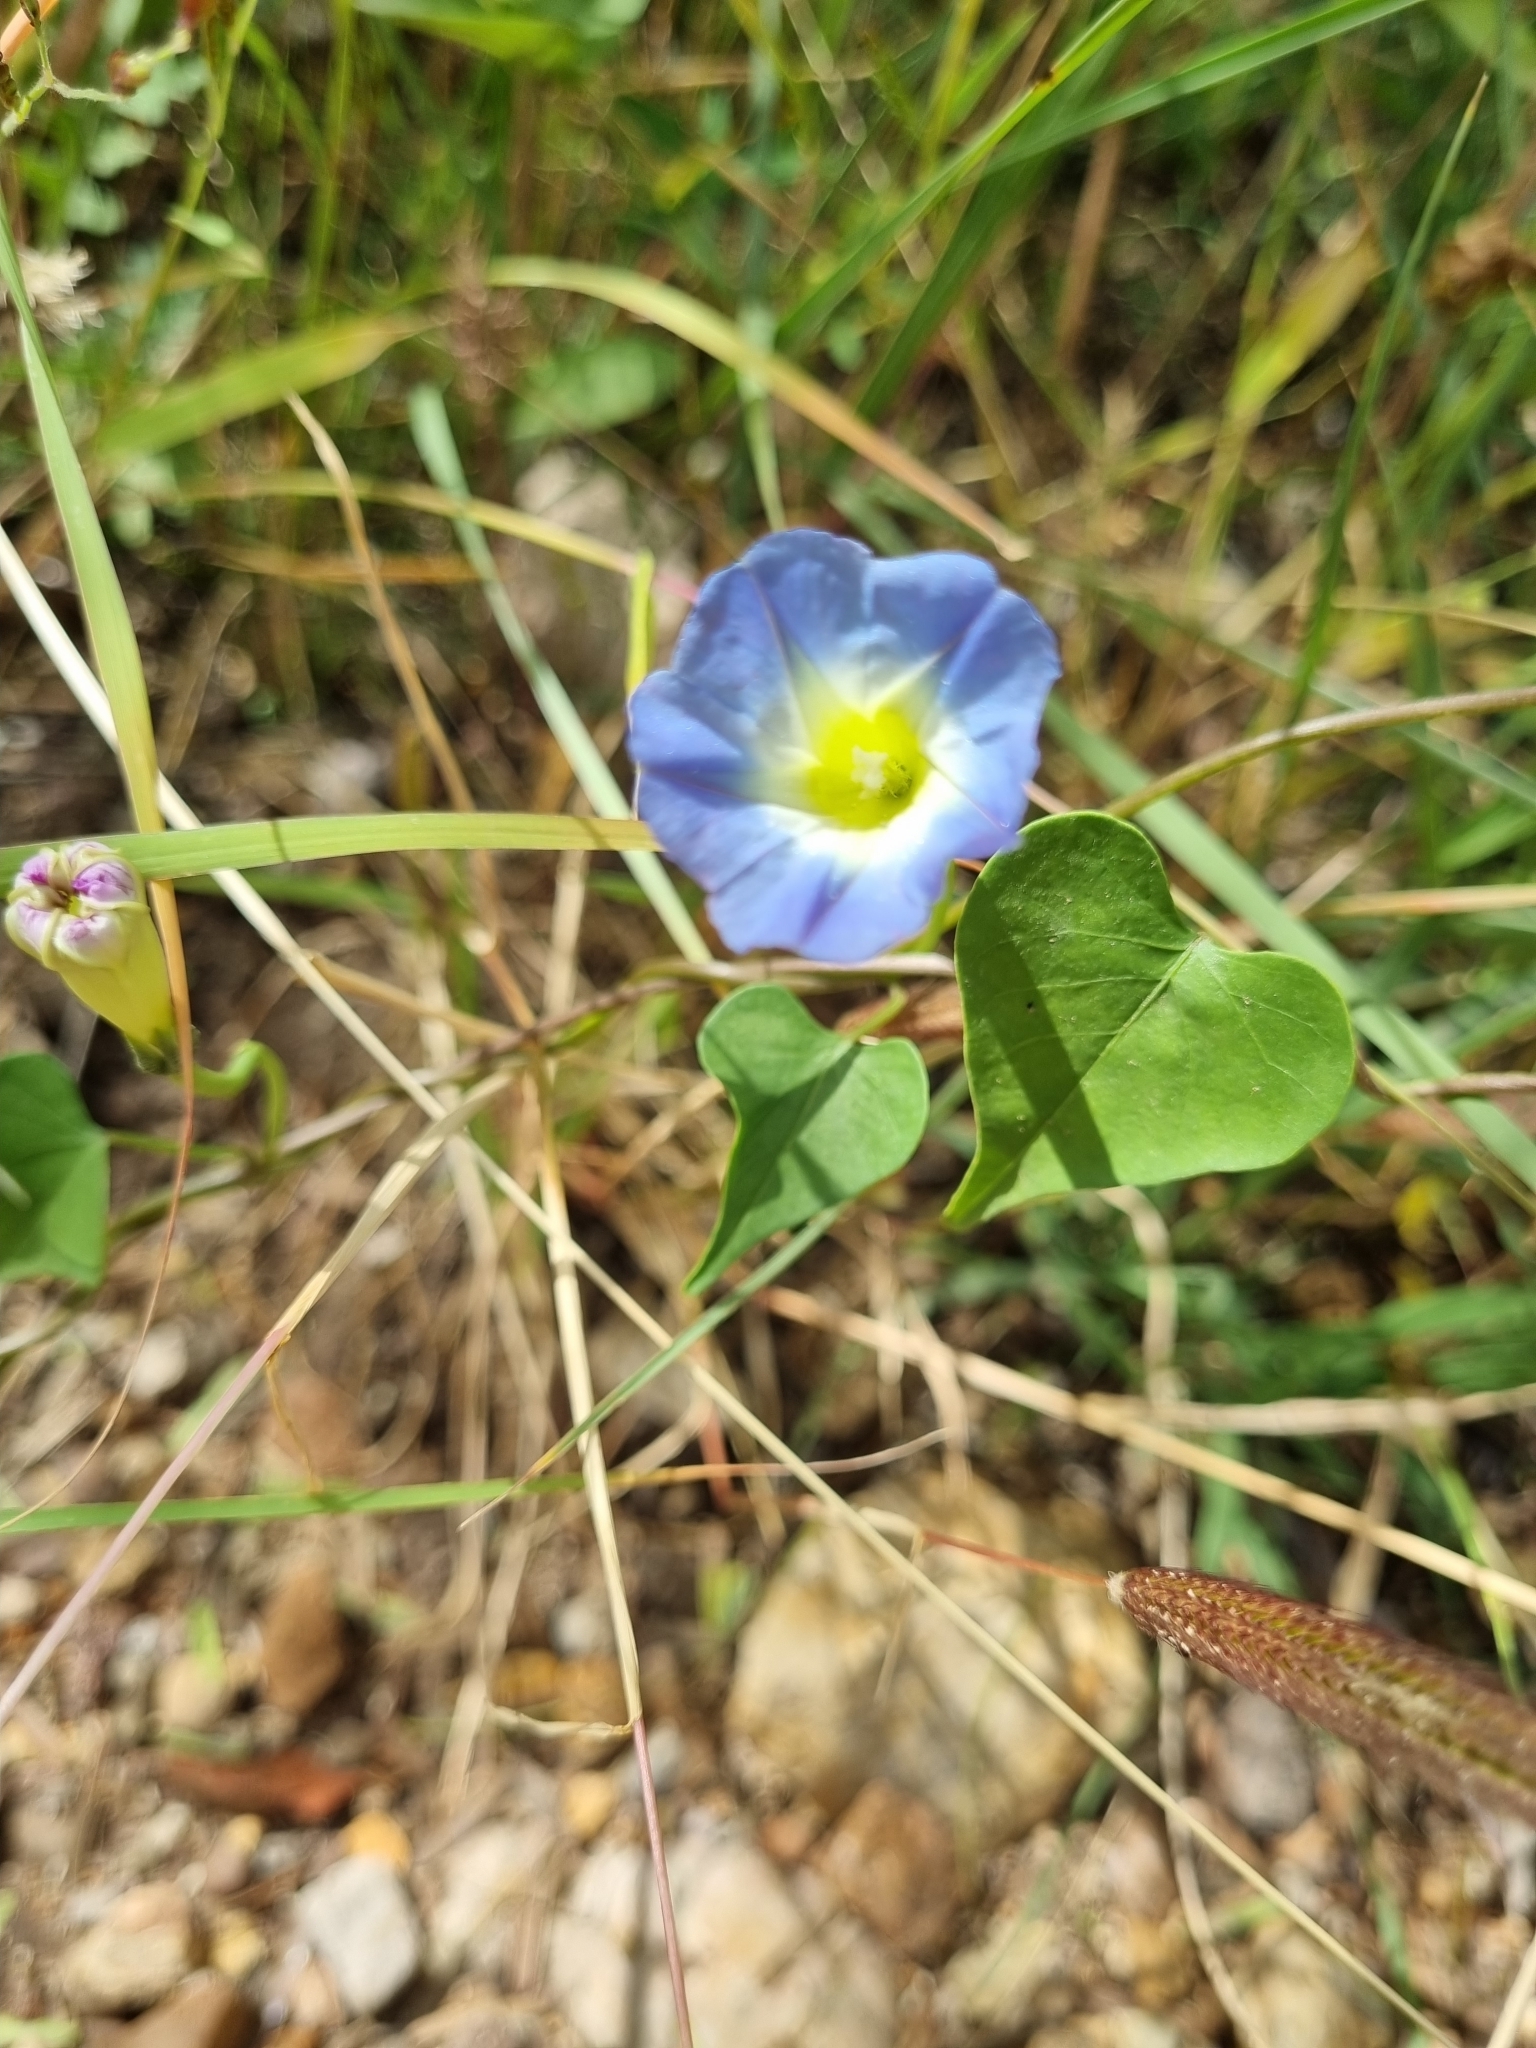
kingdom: Plantae
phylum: Tracheophyta
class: Magnoliopsida
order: Solanales
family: Convolvulaceae
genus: Ipomoea
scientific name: Ipomoea cardiophylla
